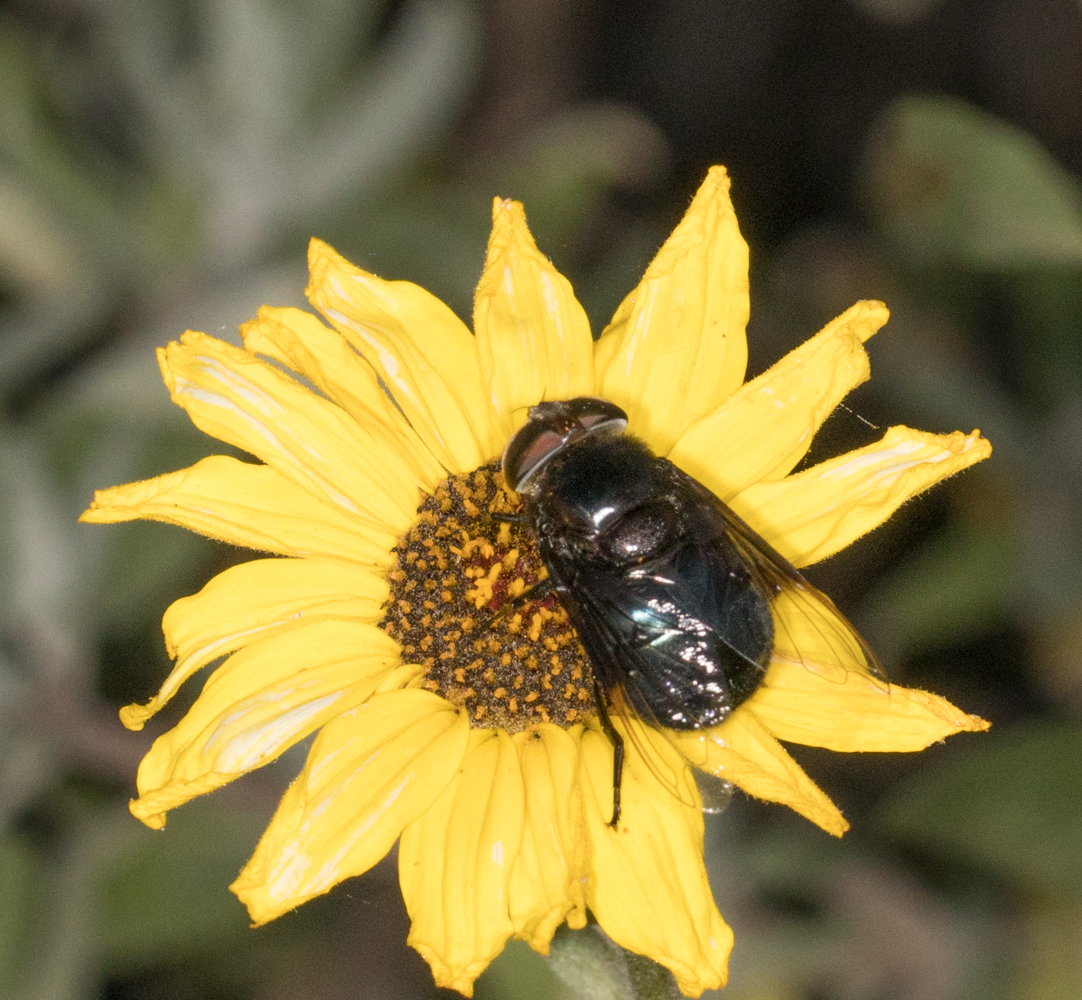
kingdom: Animalia
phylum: Arthropoda
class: Insecta
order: Diptera
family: Syrphidae
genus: Copestylum
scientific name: Copestylum
